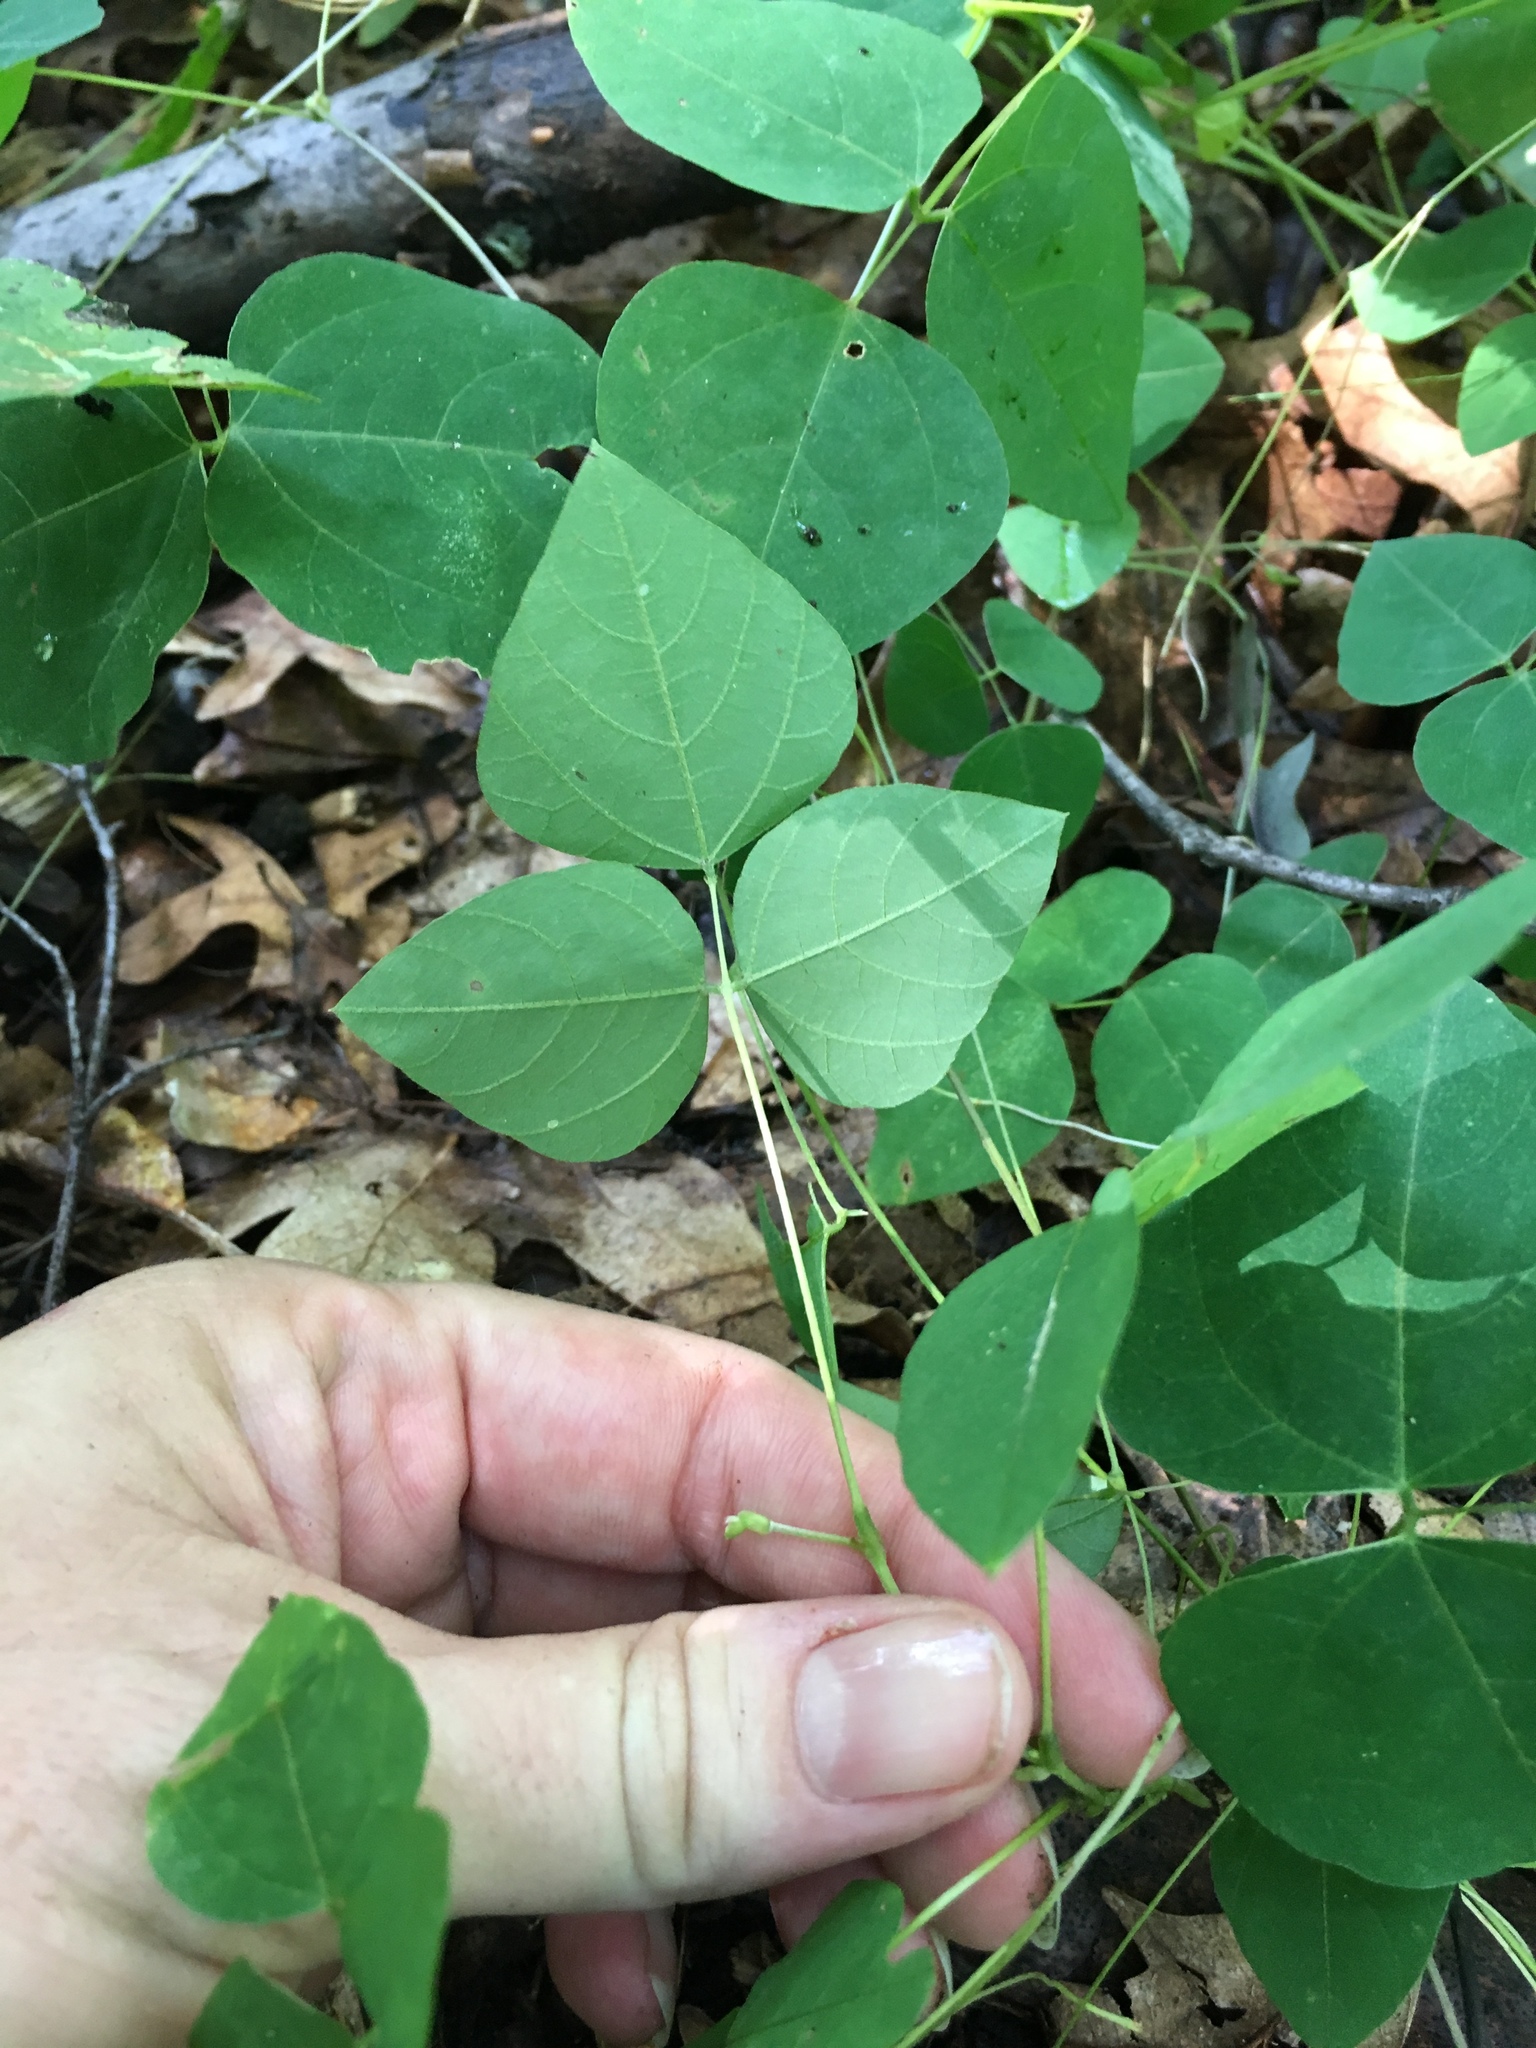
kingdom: Plantae
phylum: Tracheophyta
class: Magnoliopsida
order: Fabales
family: Fabaceae
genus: Amphicarpaea
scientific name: Amphicarpaea bracteata
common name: American hog peanut
